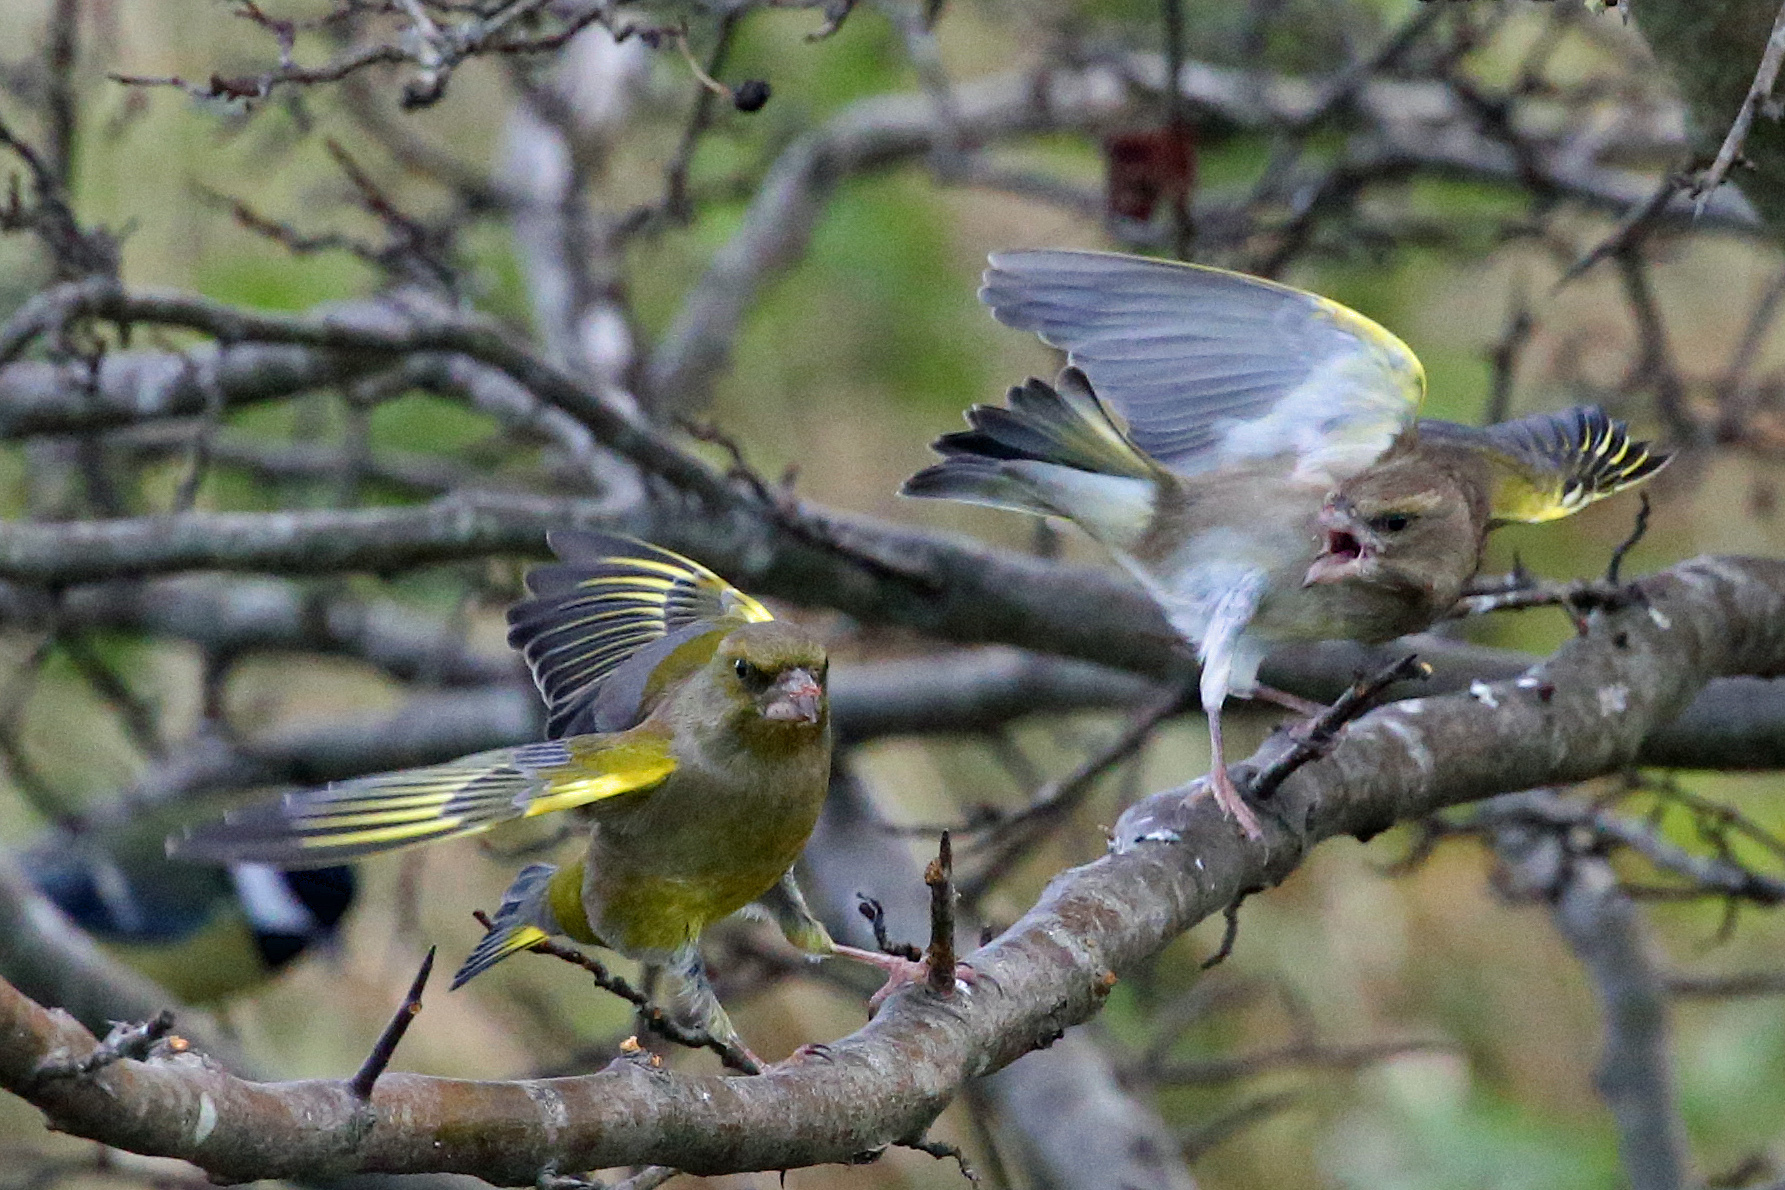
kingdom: Plantae
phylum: Tracheophyta
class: Liliopsida
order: Poales
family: Poaceae
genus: Chloris
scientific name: Chloris chloris
